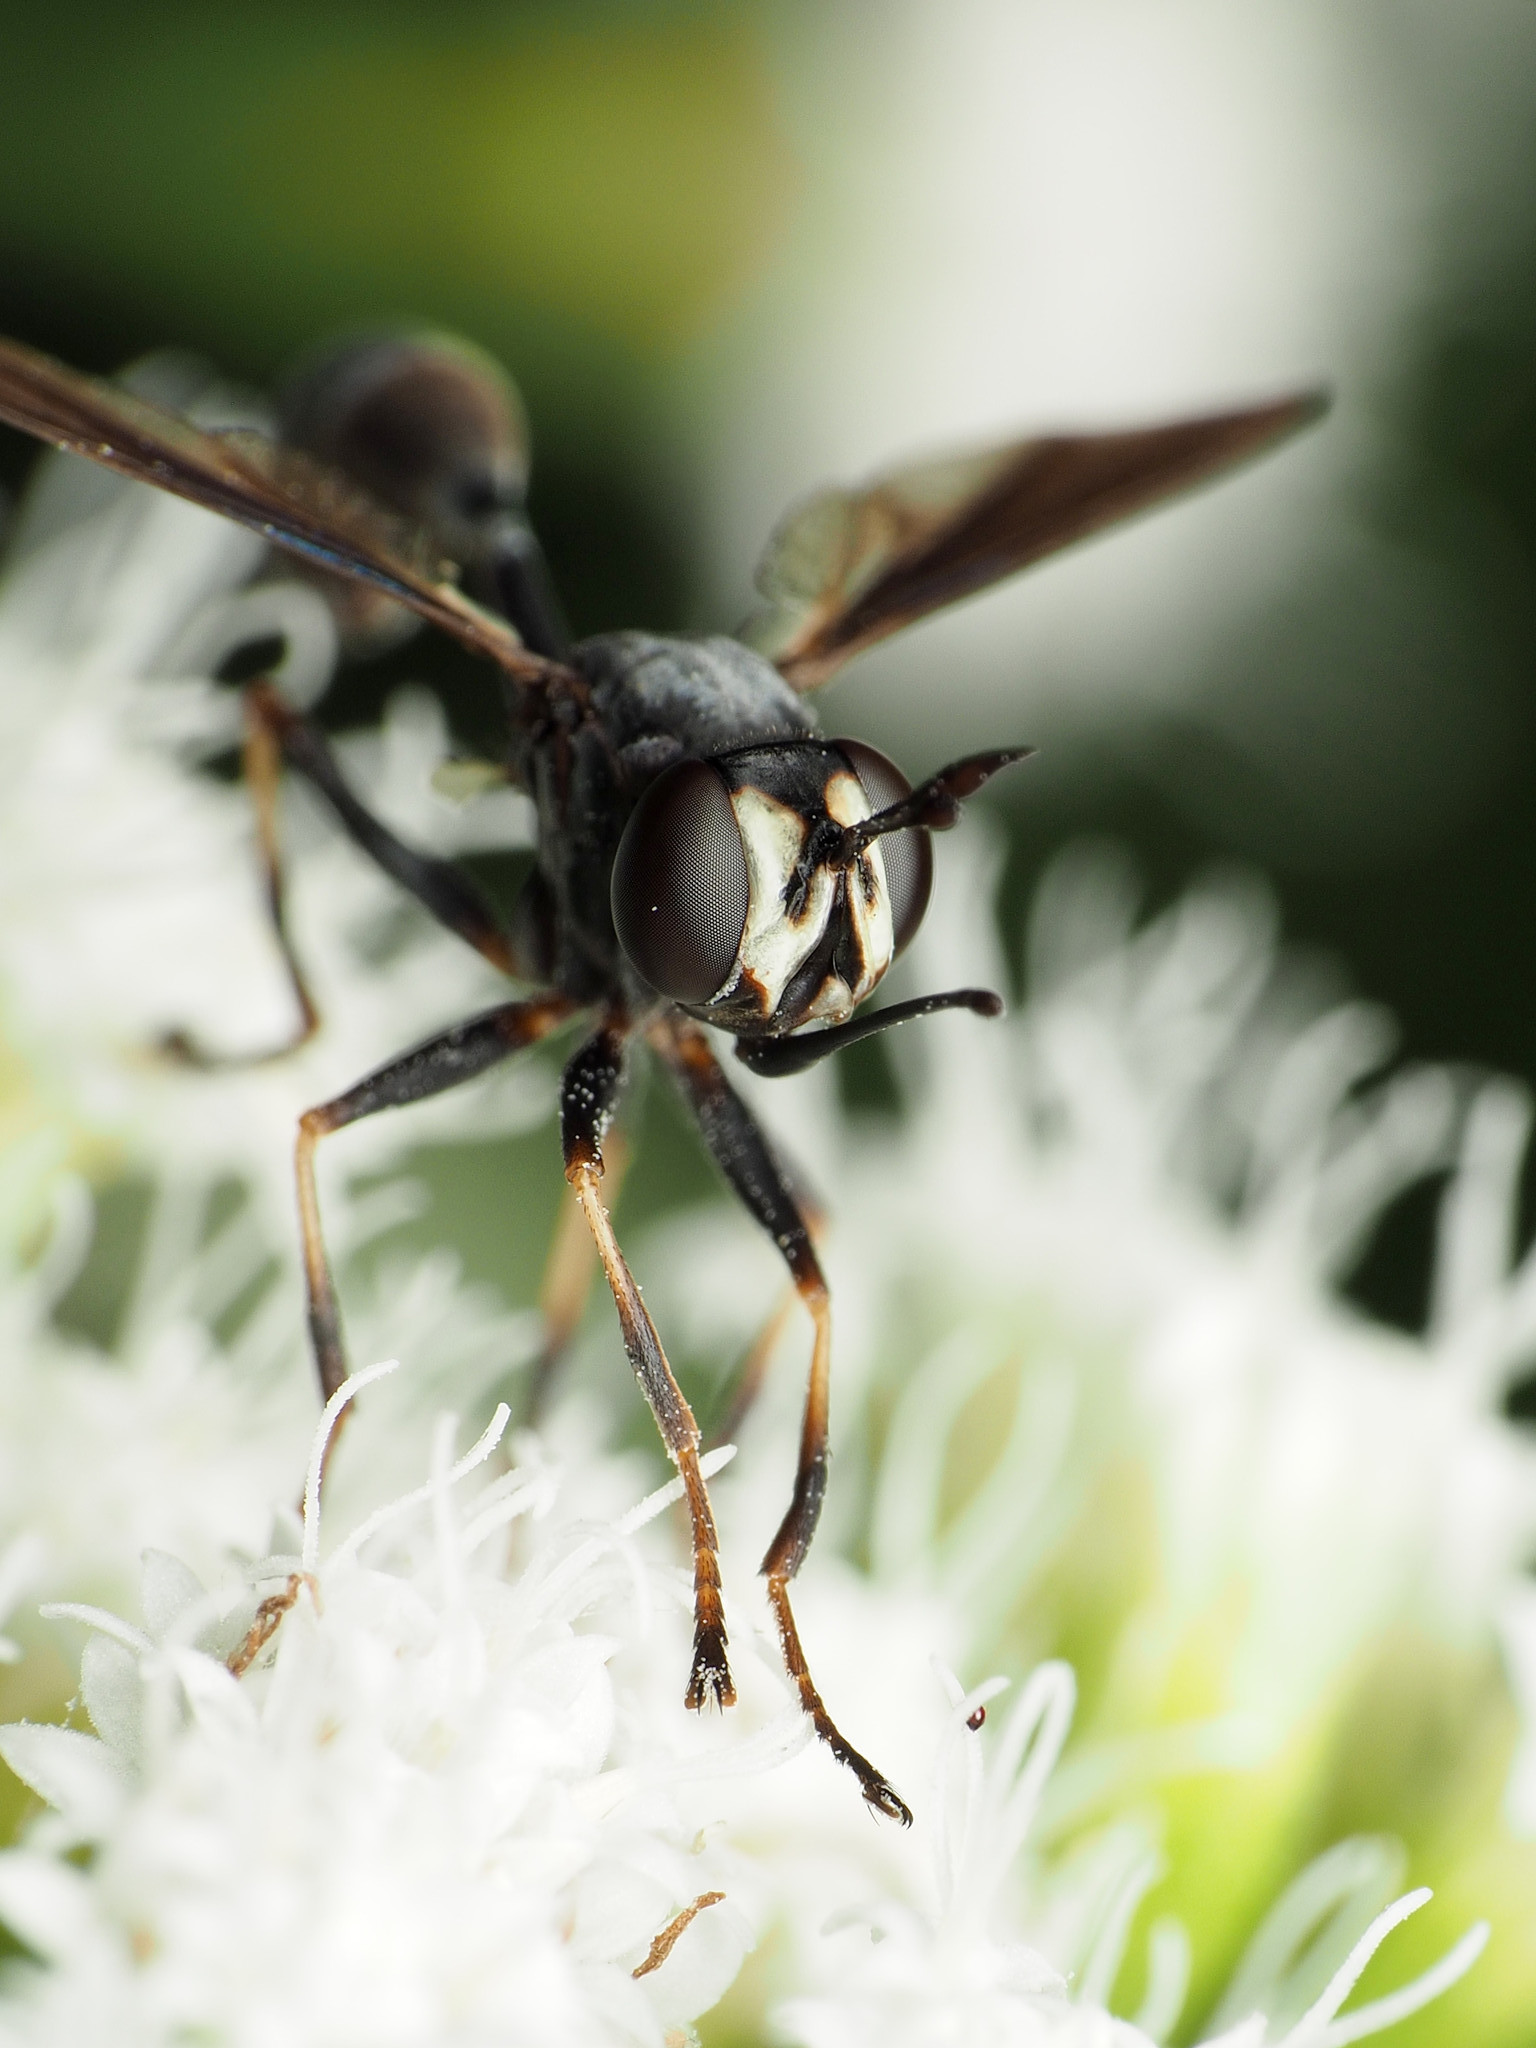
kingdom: Animalia
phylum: Arthropoda
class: Insecta
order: Diptera
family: Conopidae
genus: Physocephala
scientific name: Physocephala tibialis
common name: Common eastern physocephala
